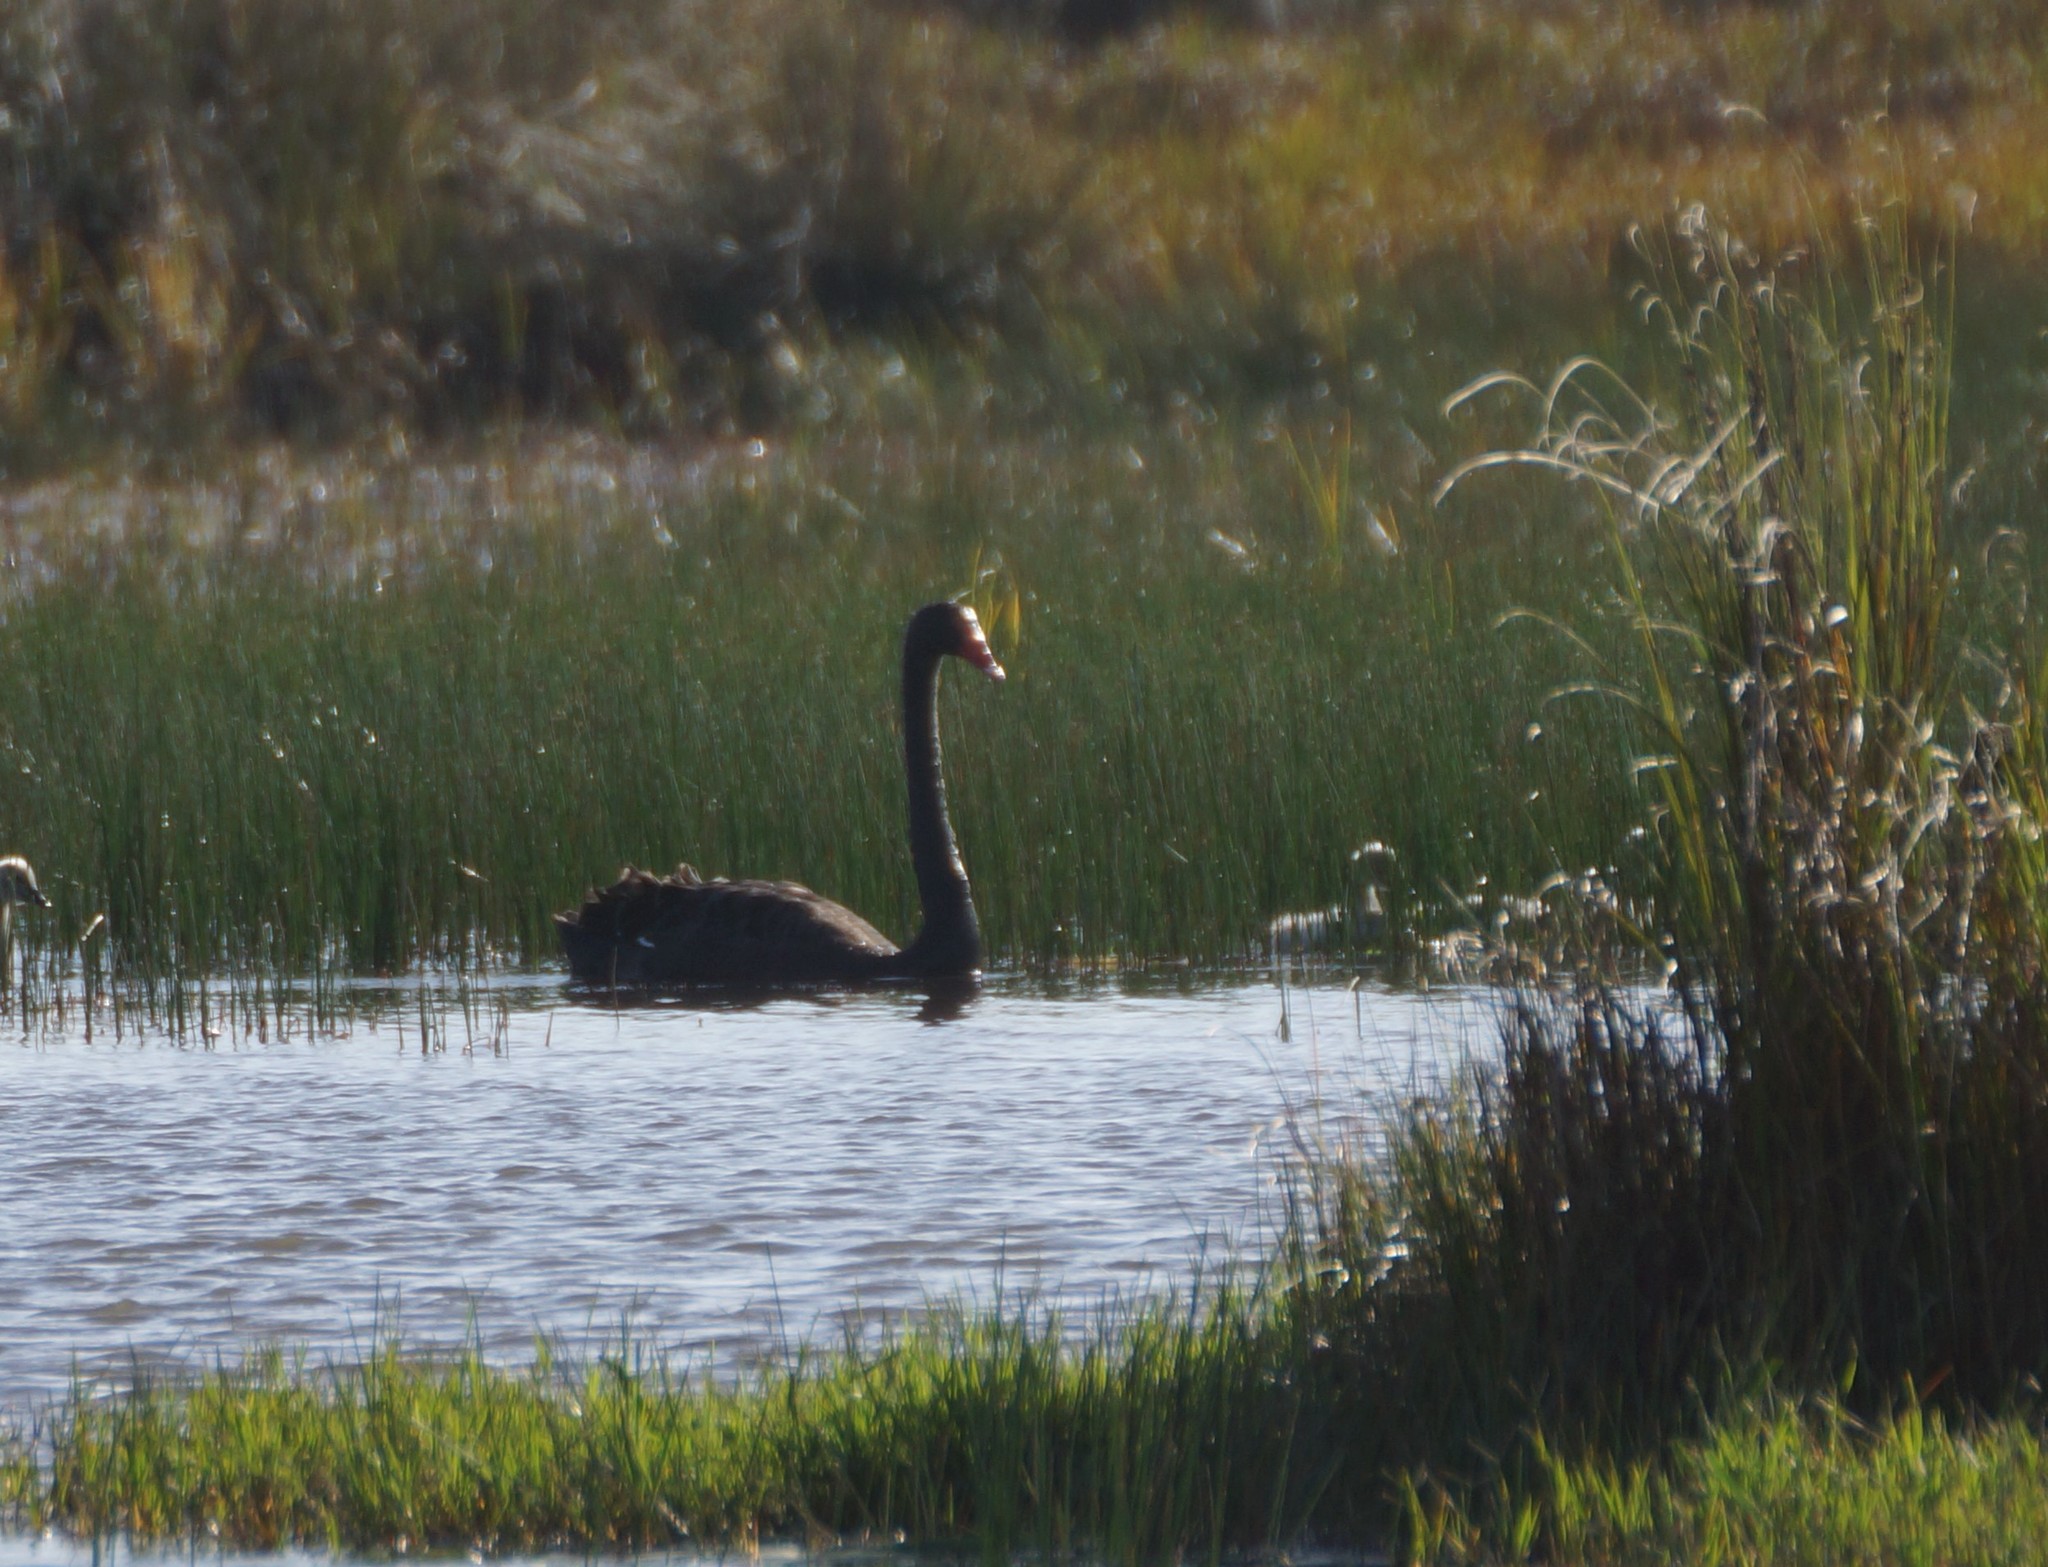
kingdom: Animalia
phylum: Chordata
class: Aves
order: Anseriformes
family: Anatidae
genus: Cygnus
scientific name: Cygnus atratus
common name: Black swan
